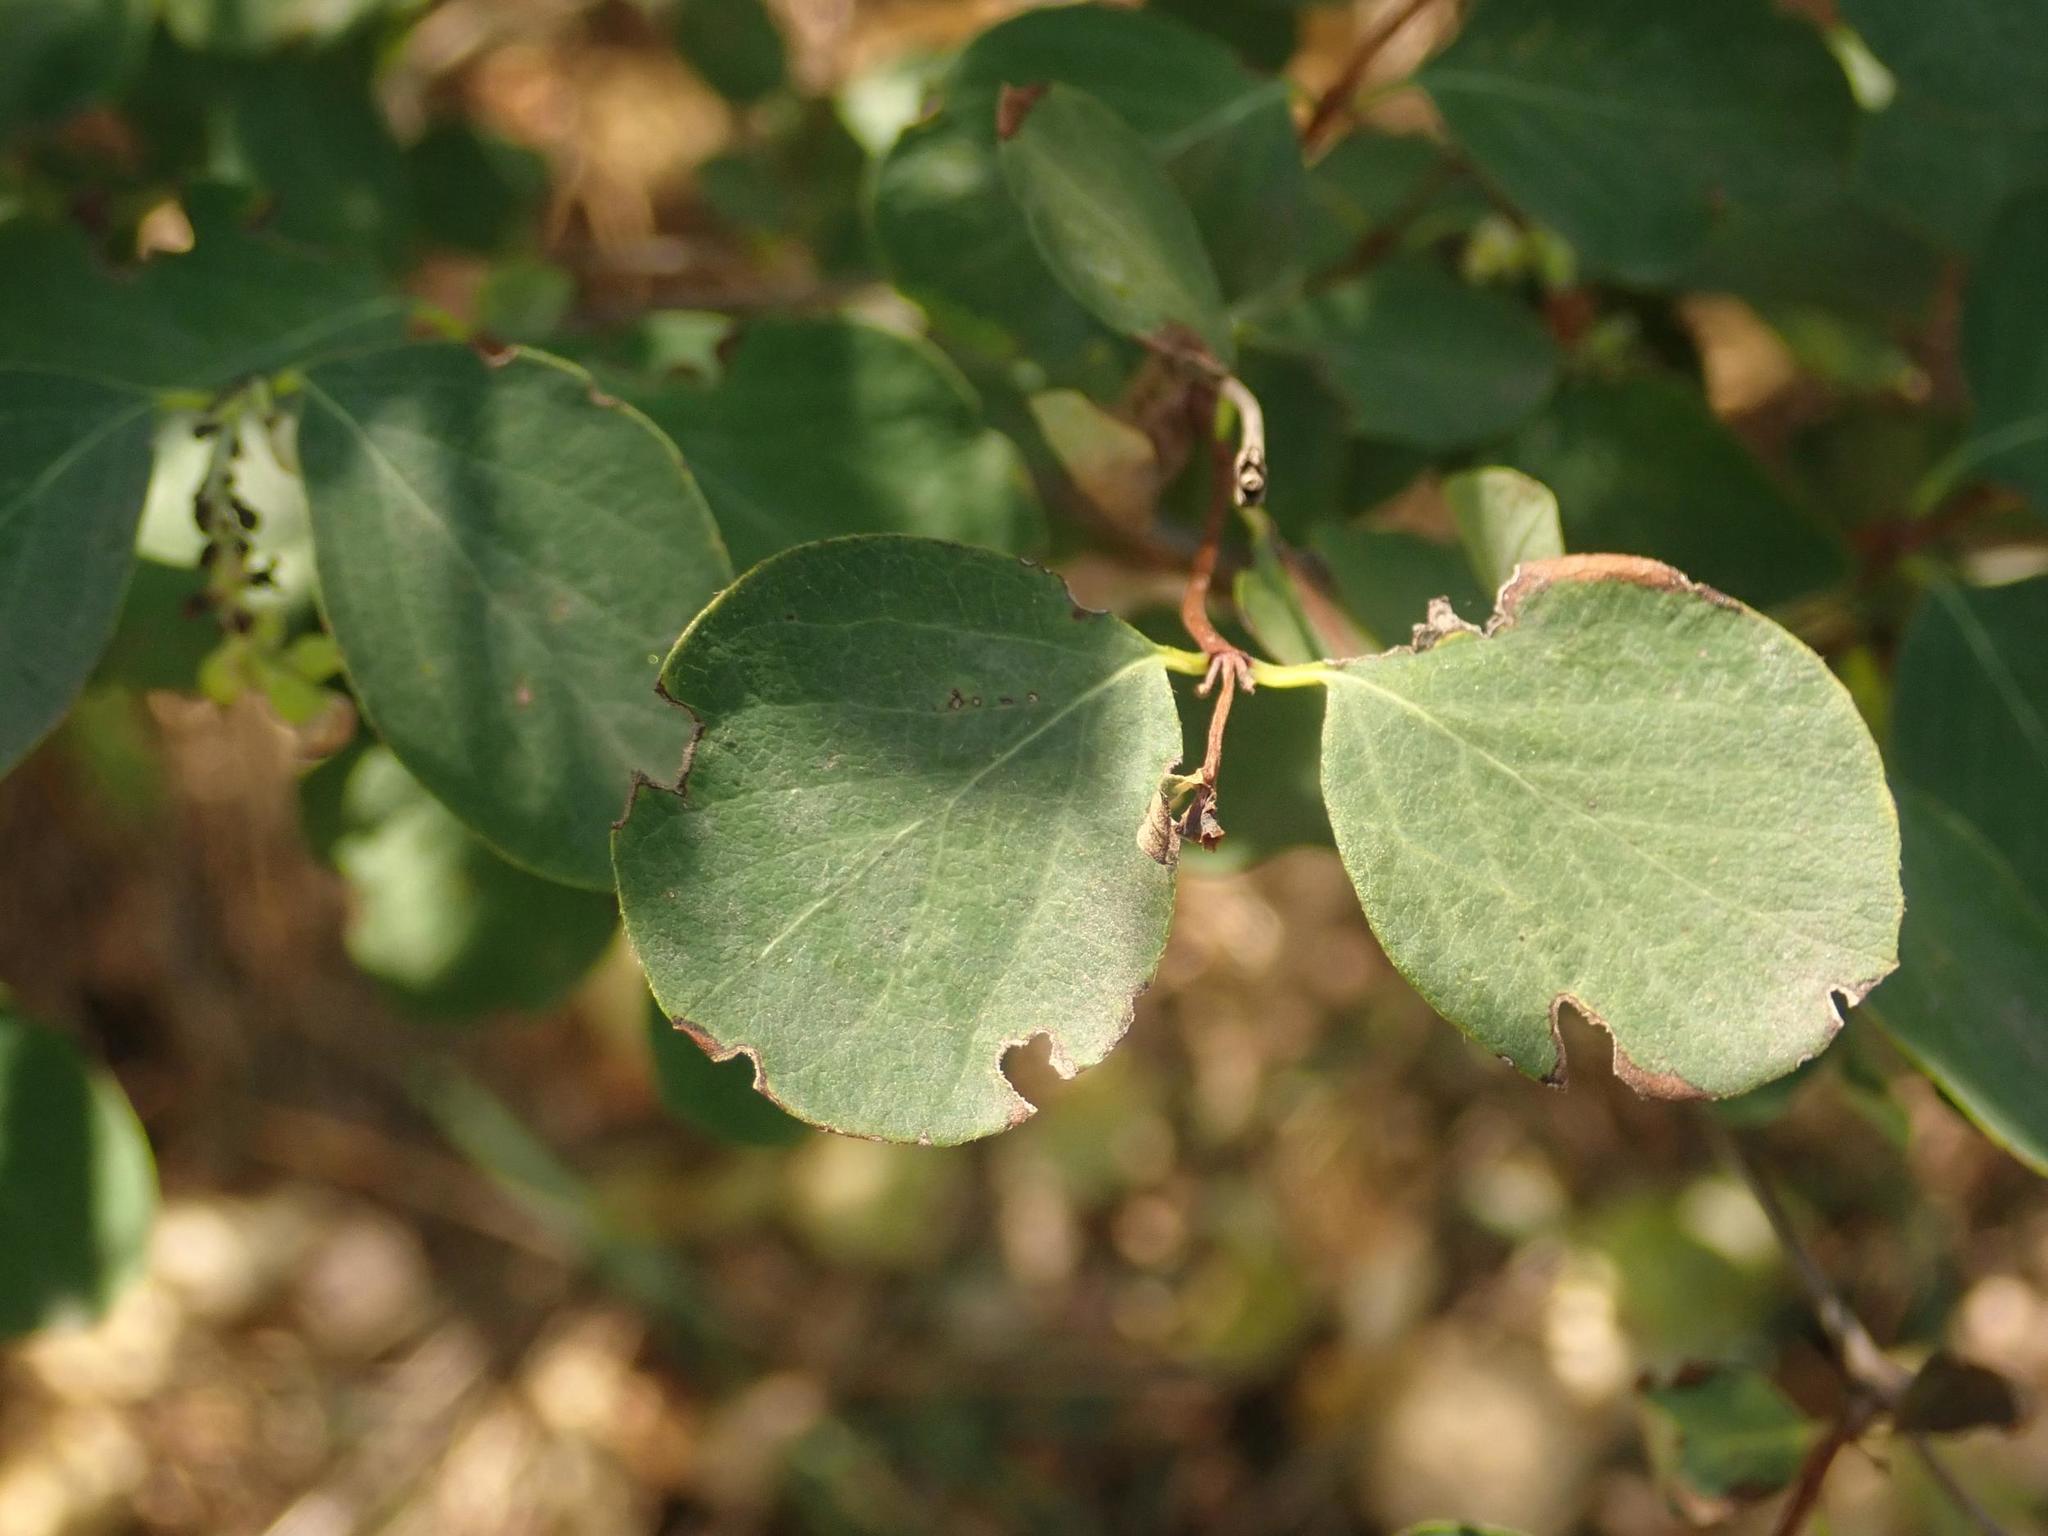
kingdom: Plantae
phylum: Tracheophyta
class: Magnoliopsida
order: Dipsacales
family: Caprifoliaceae
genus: Symphoricarpos
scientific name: Symphoricarpos albus
